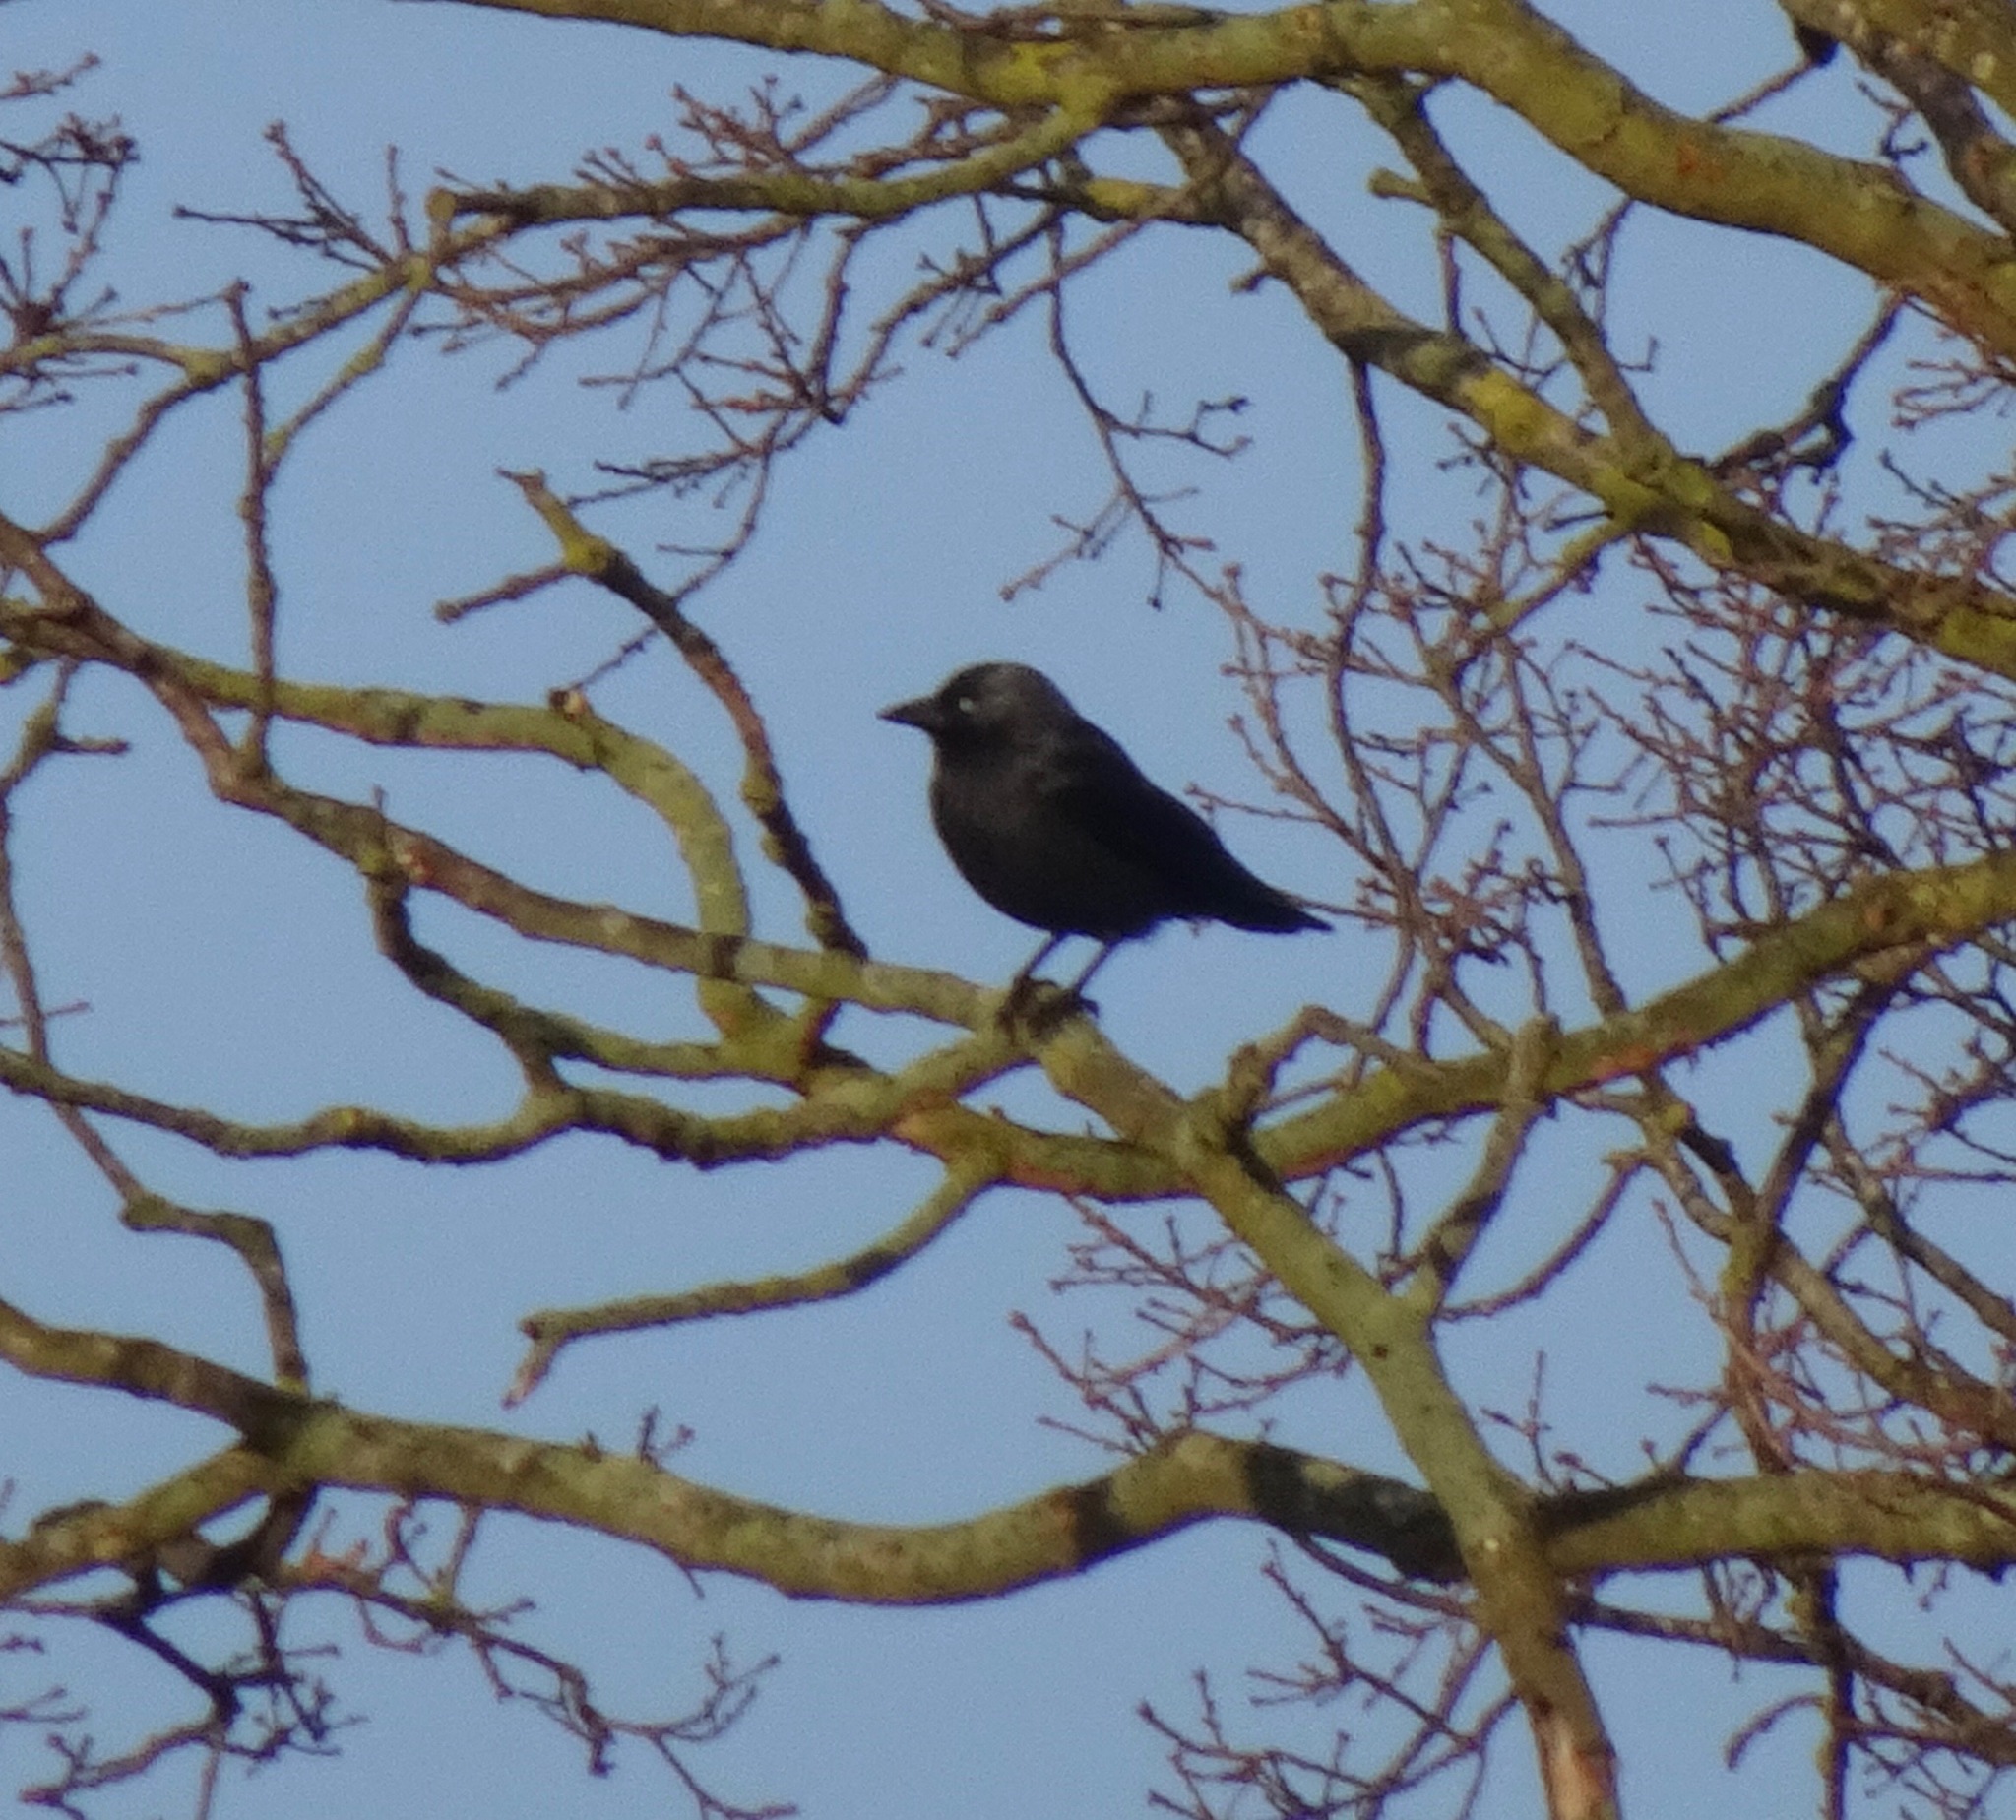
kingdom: Animalia
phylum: Chordata
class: Aves
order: Passeriformes
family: Corvidae
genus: Coloeus
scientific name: Coloeus monedula
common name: Western jackdaw
